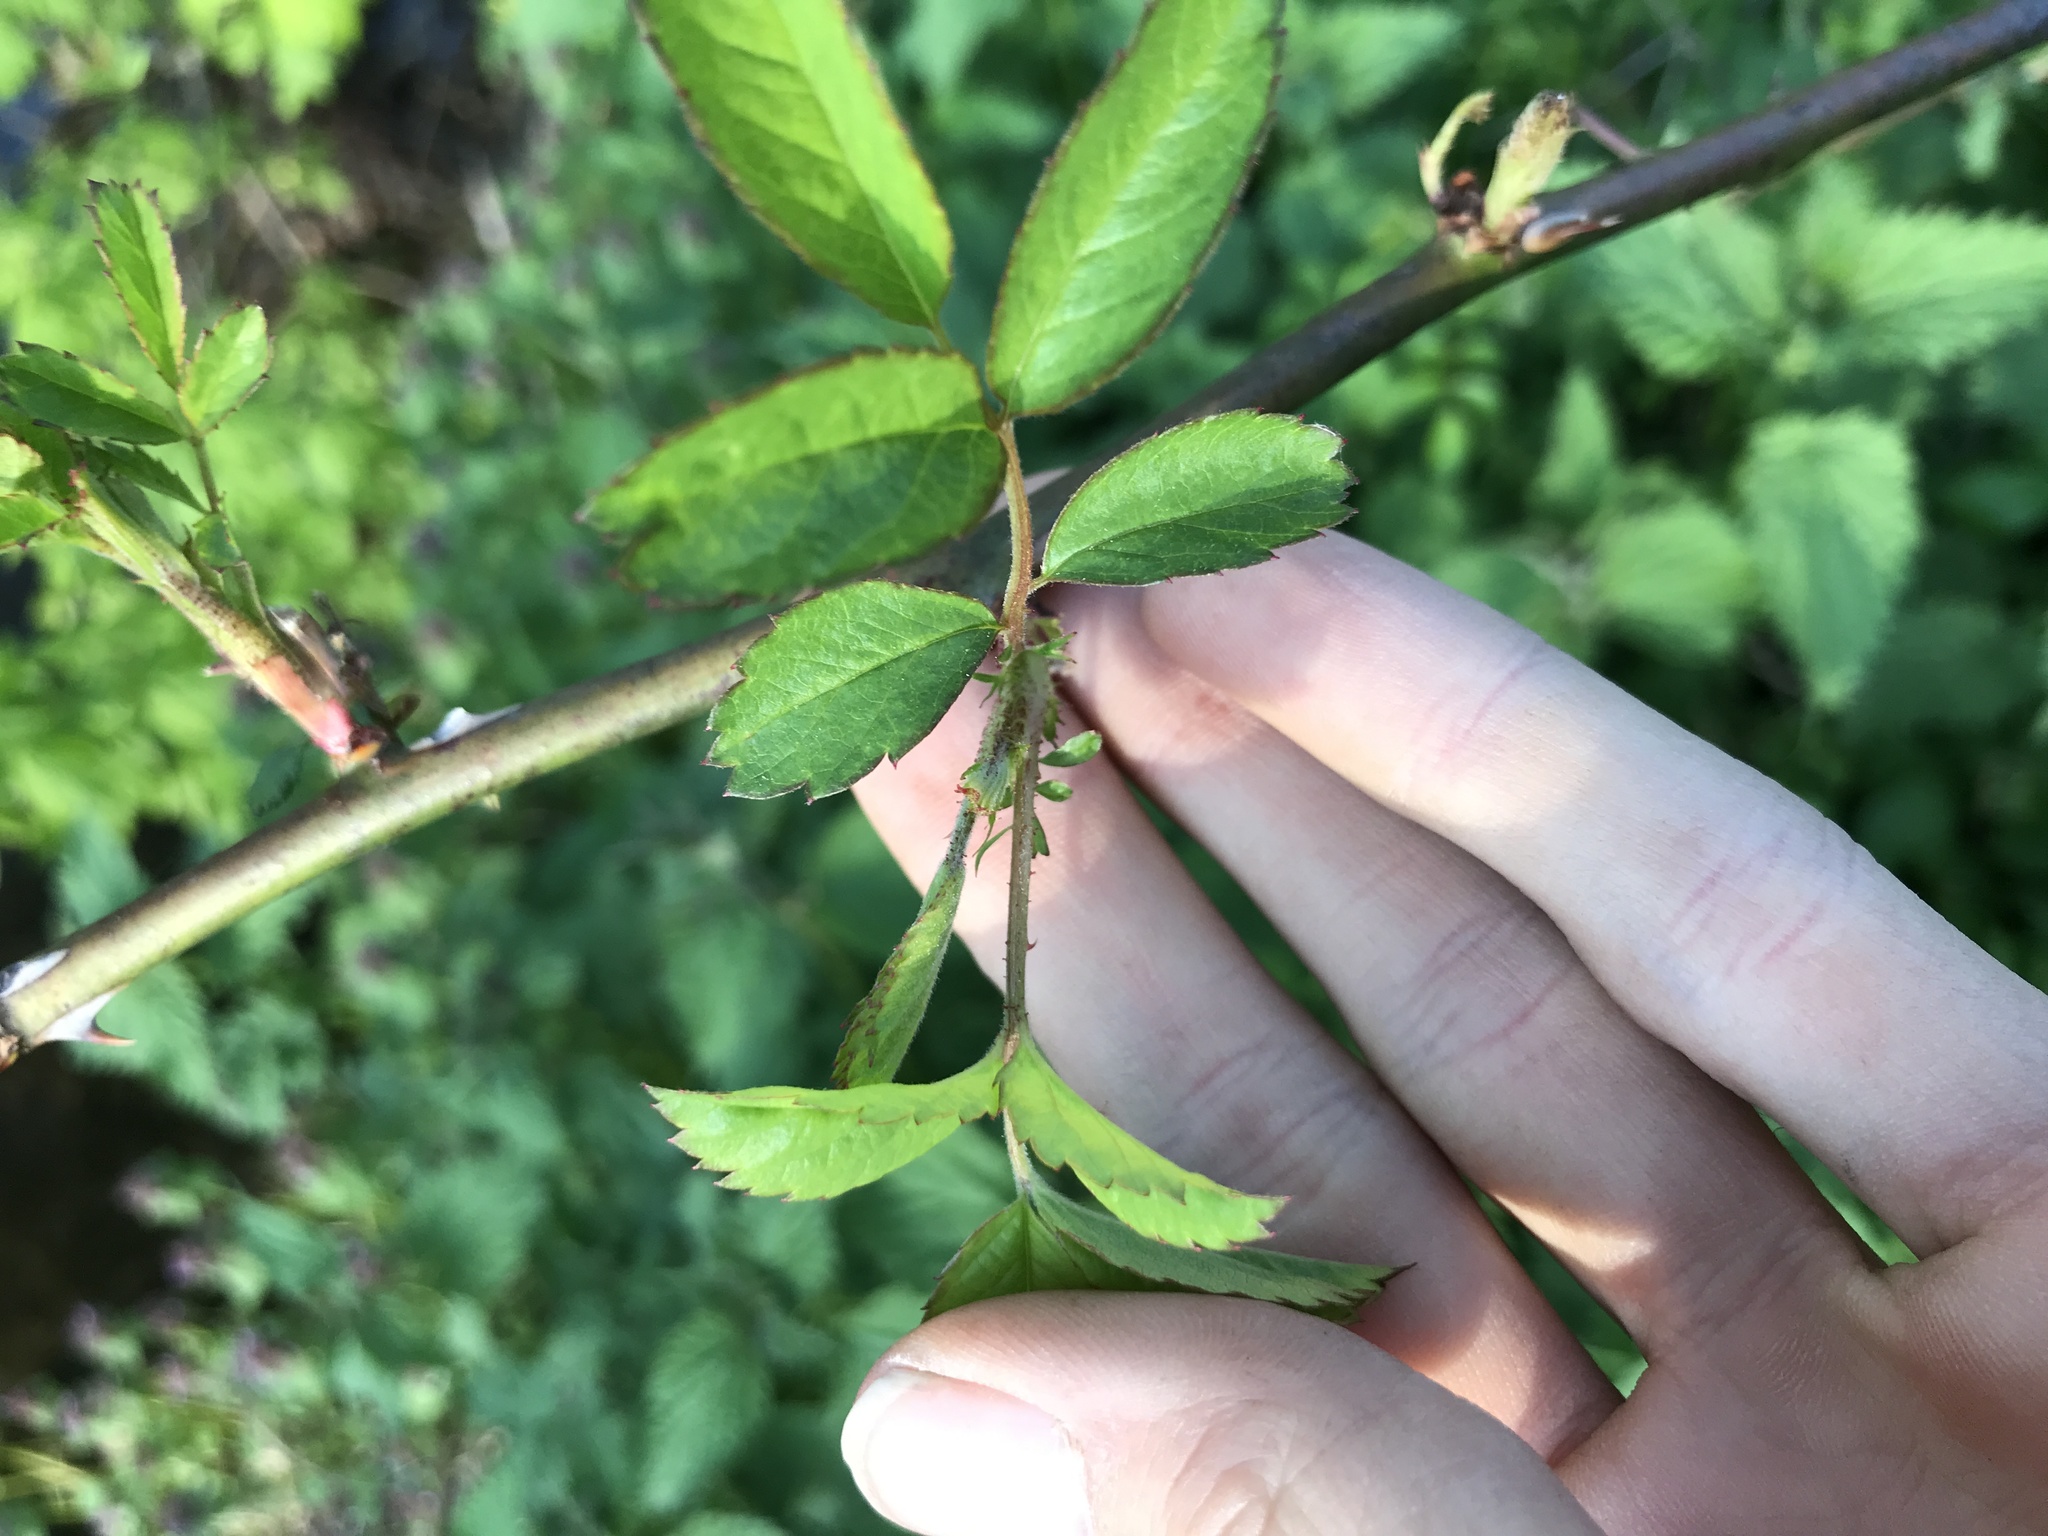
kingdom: Plantae
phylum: Tracheophyta
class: Magnoliopsida
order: Rosales
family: Rosaceae
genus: Rosa
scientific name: Rosa multiflora
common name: Multiflora rose
